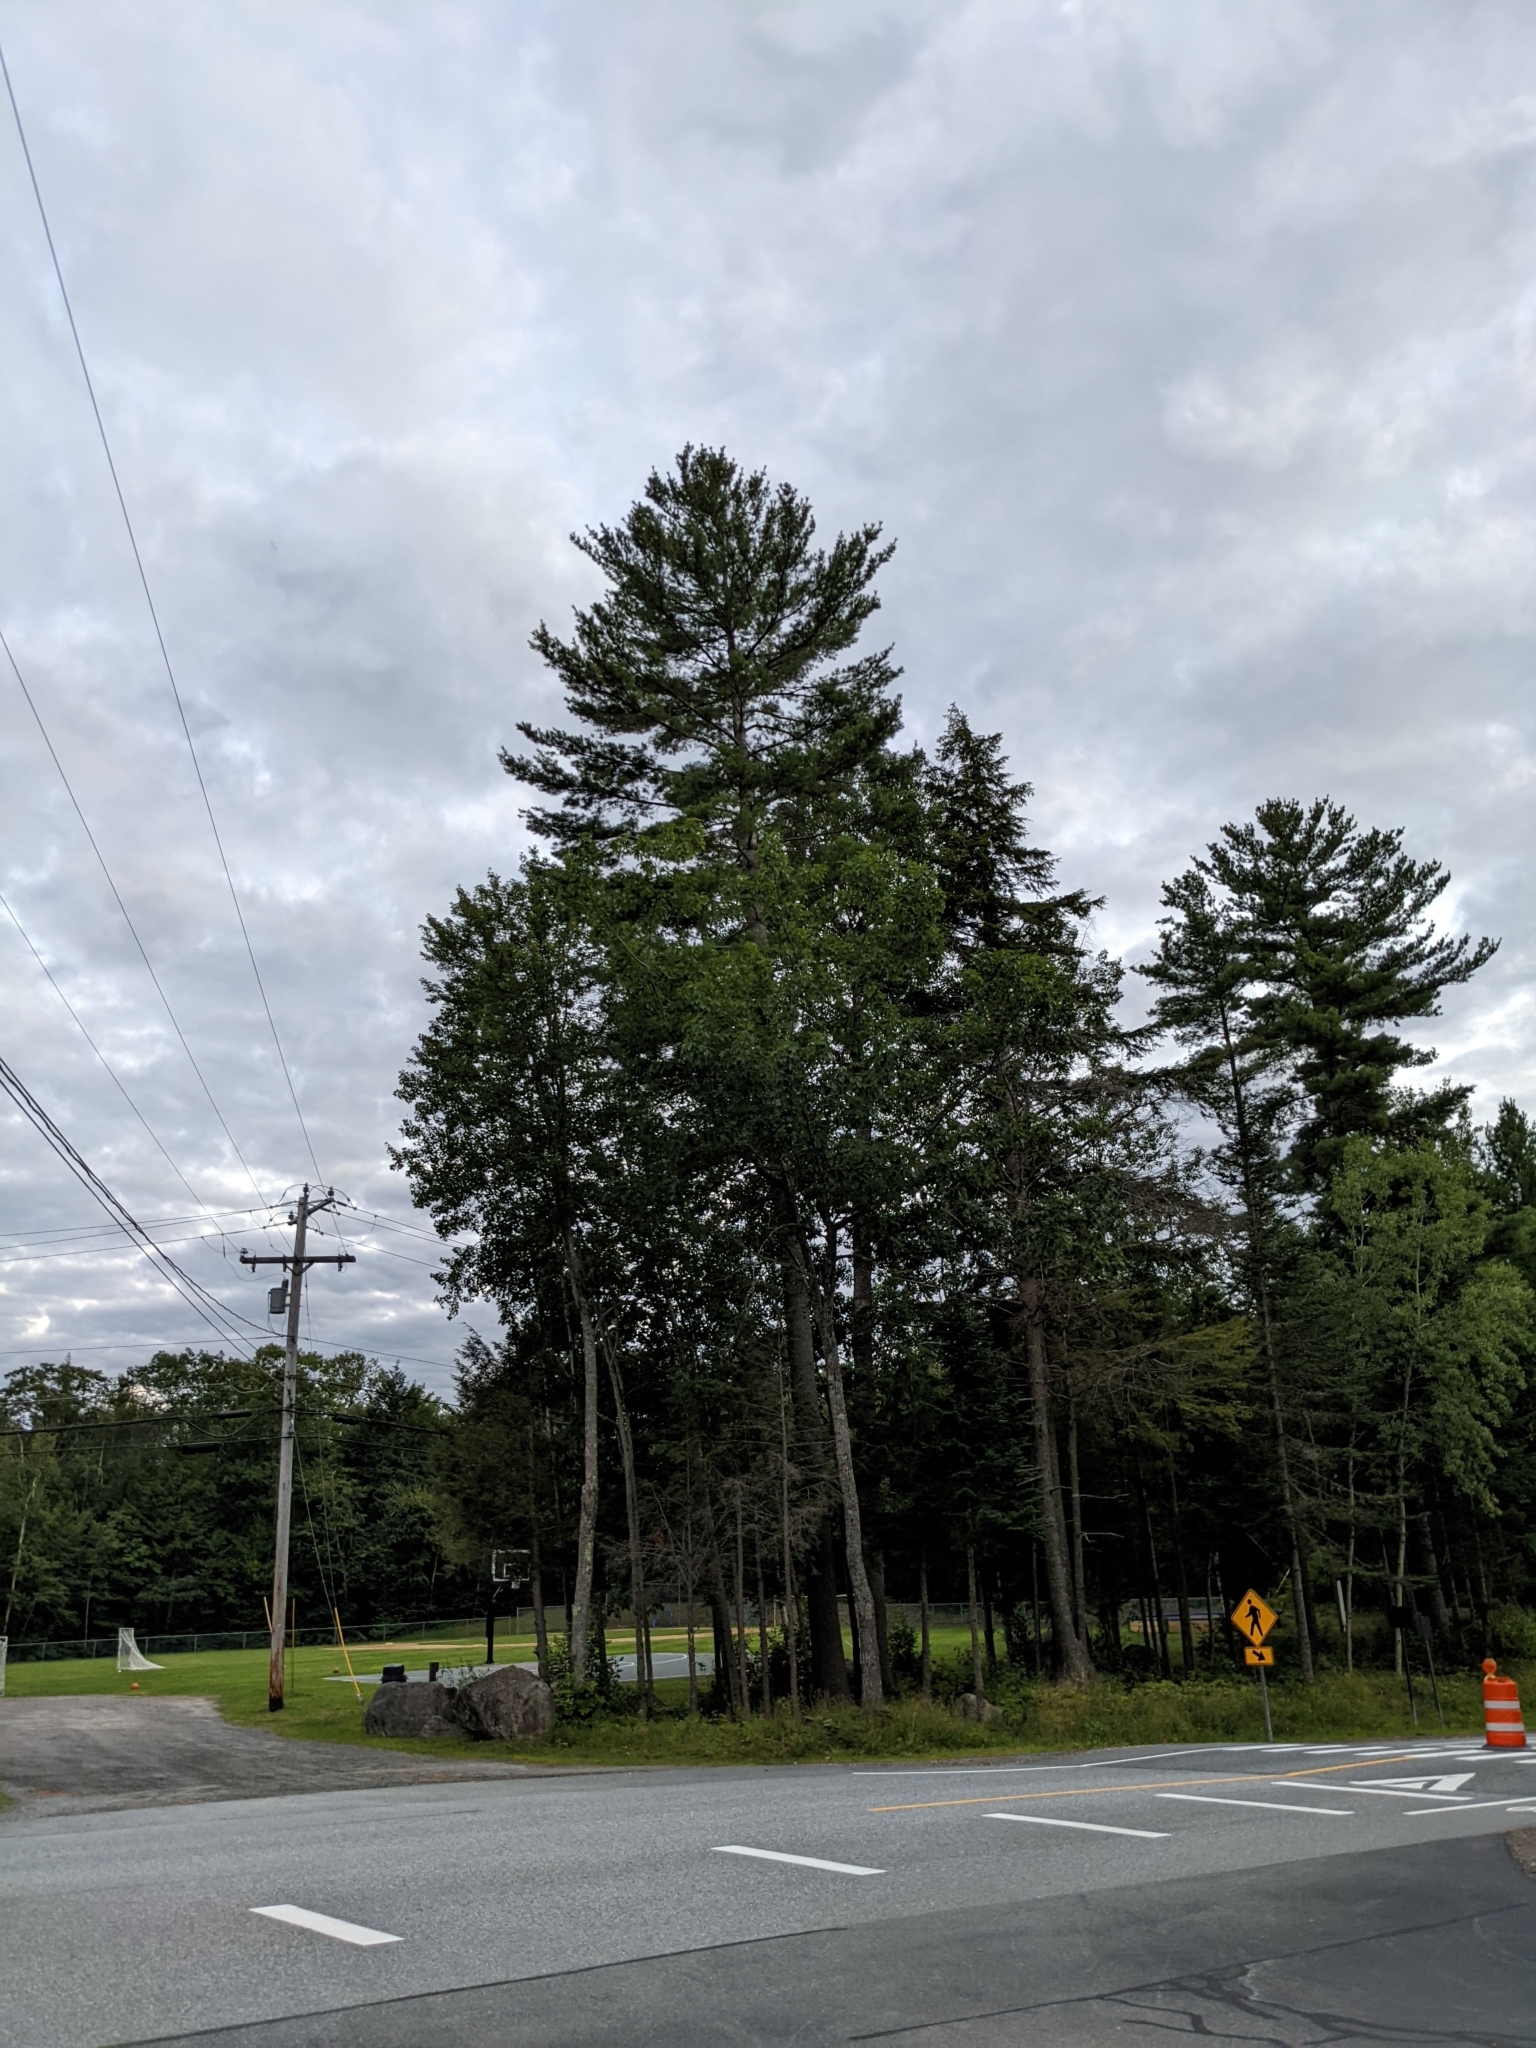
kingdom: Plantae
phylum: Tracheophyta
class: Pinopsida
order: Pinales
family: Pinaceae
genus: Pinus
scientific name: Pinus strobus
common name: Weymouth pine
